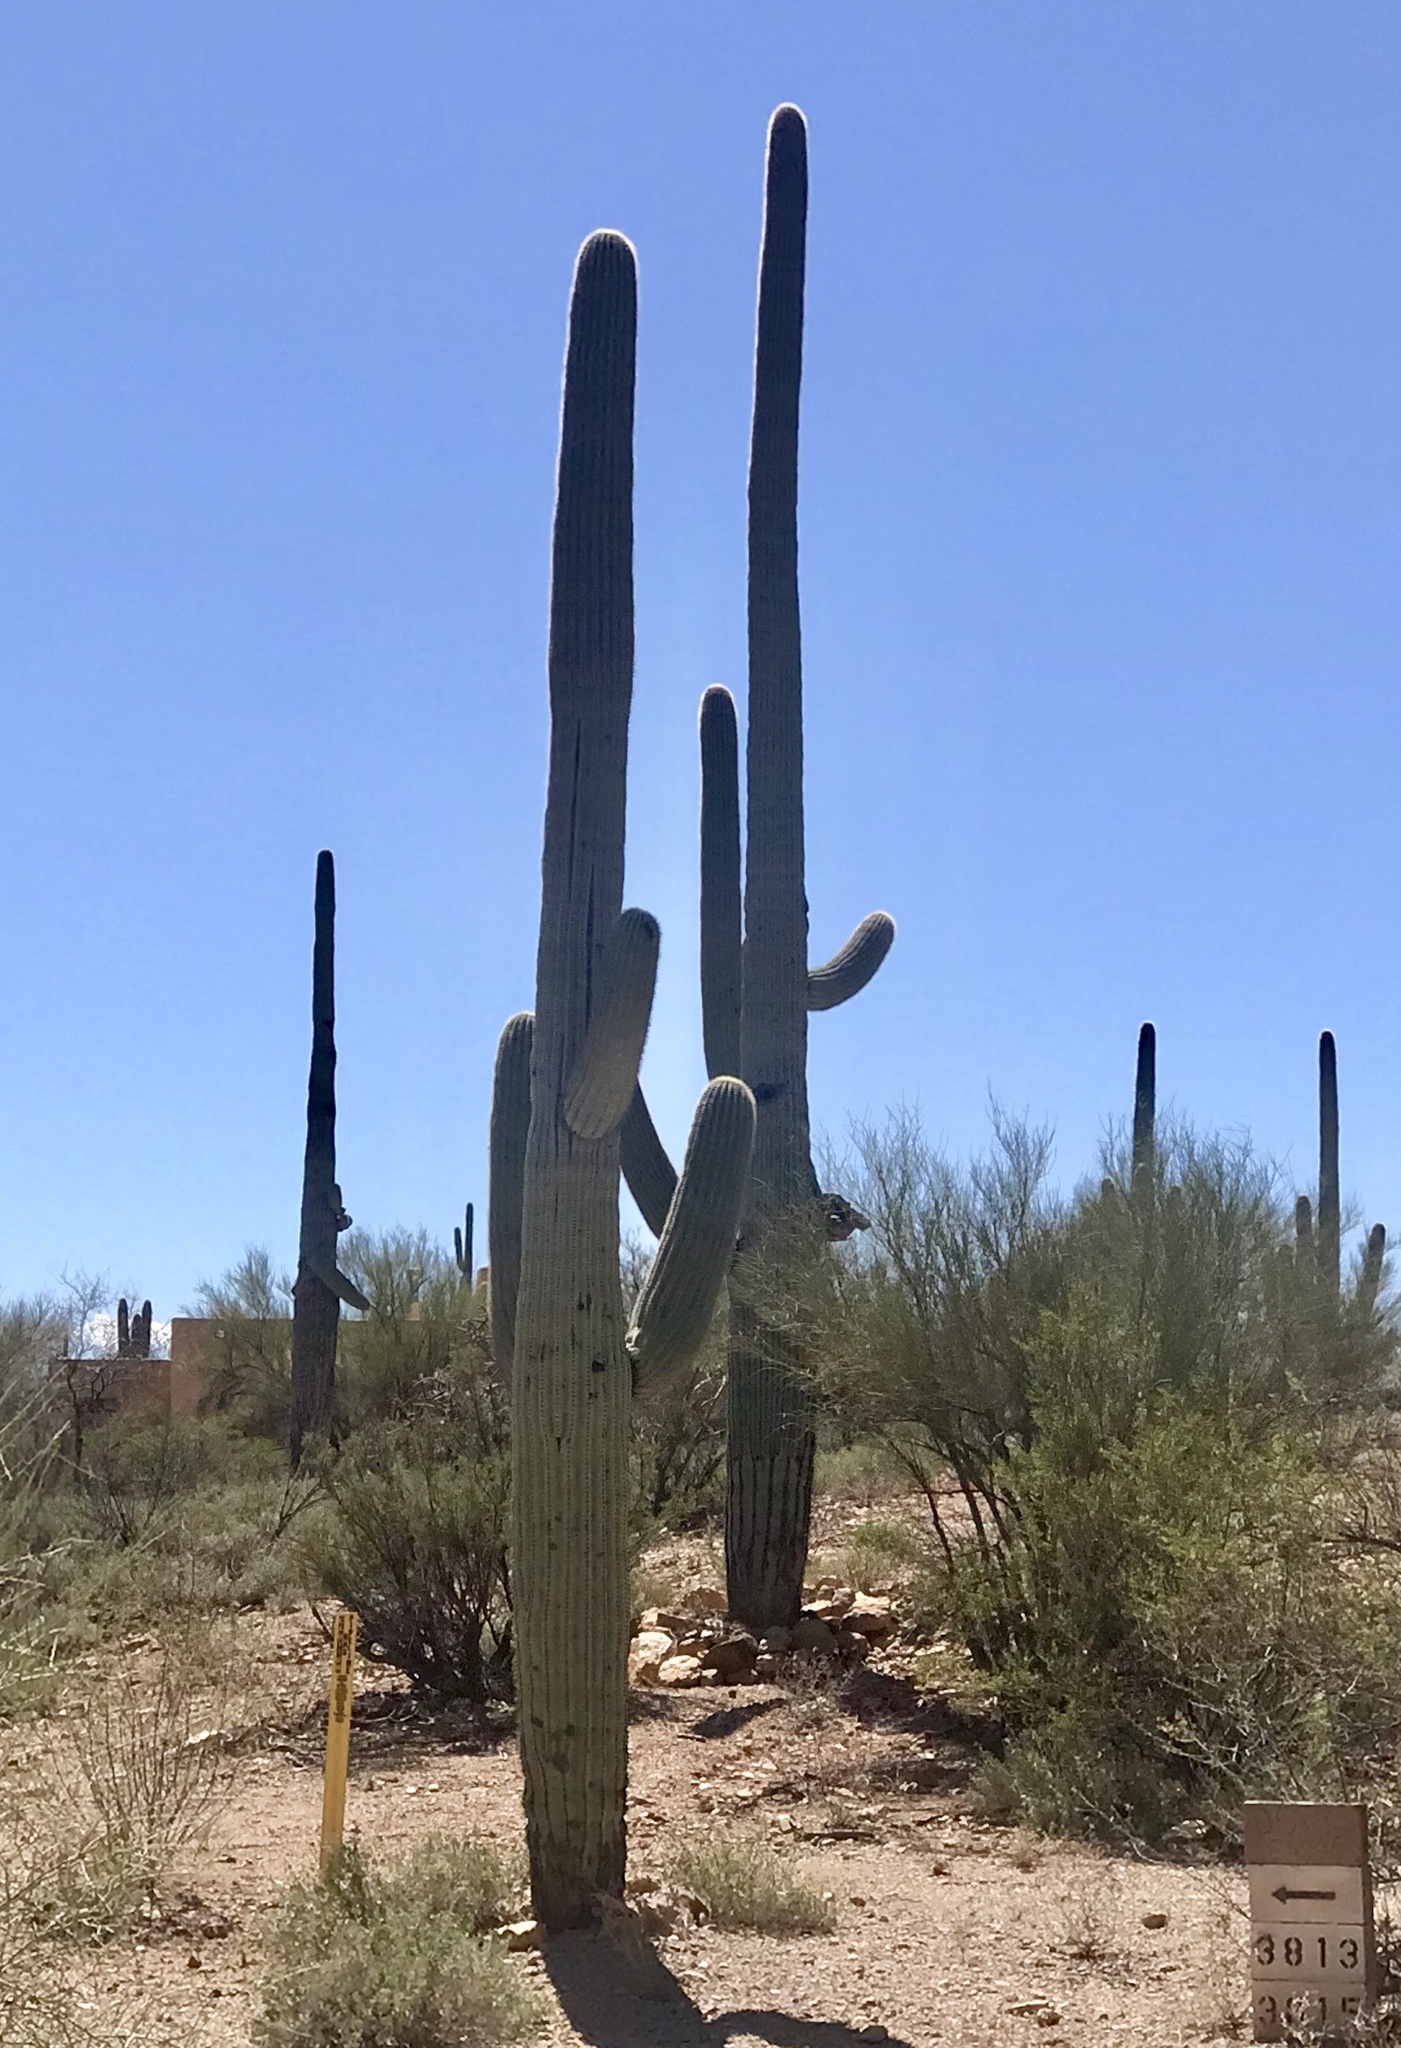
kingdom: Plantae
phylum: Tracheophyta
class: Magnoliopsida
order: Caryophyllales
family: Cactaceae
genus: Carnegiea
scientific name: Carnegiea gigantea
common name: Saguaro
